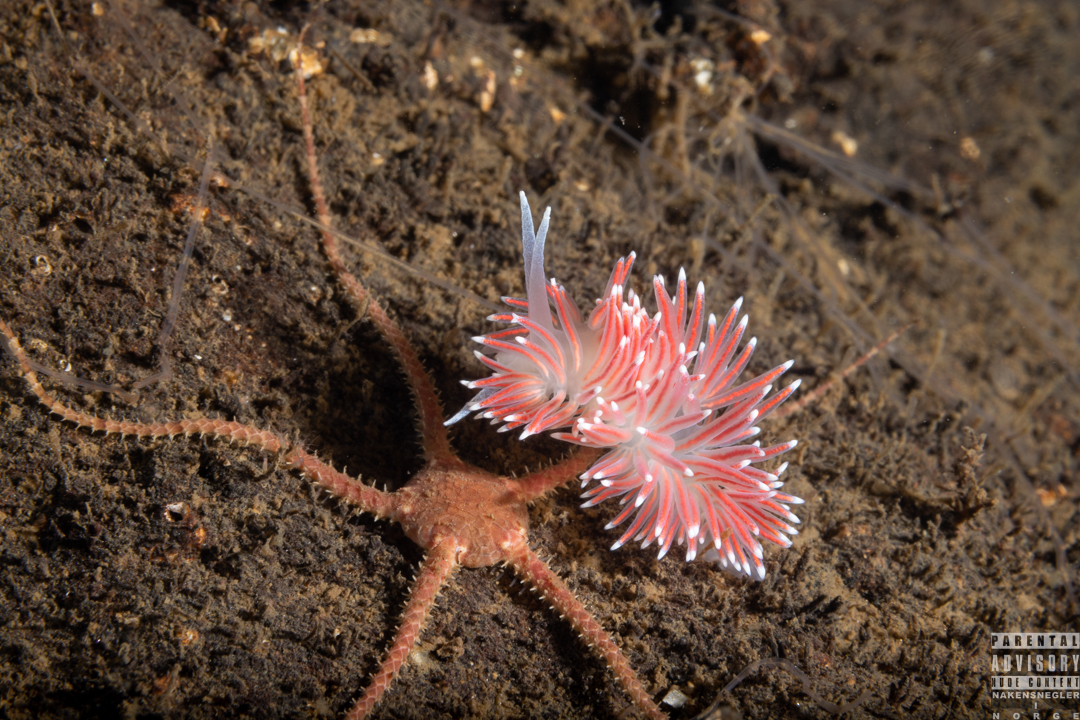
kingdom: Animalia
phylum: Mollusca
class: Gastropoda
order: Nudibranchia
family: Flabellinidae
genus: Carronella
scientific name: Carronella pellucida
